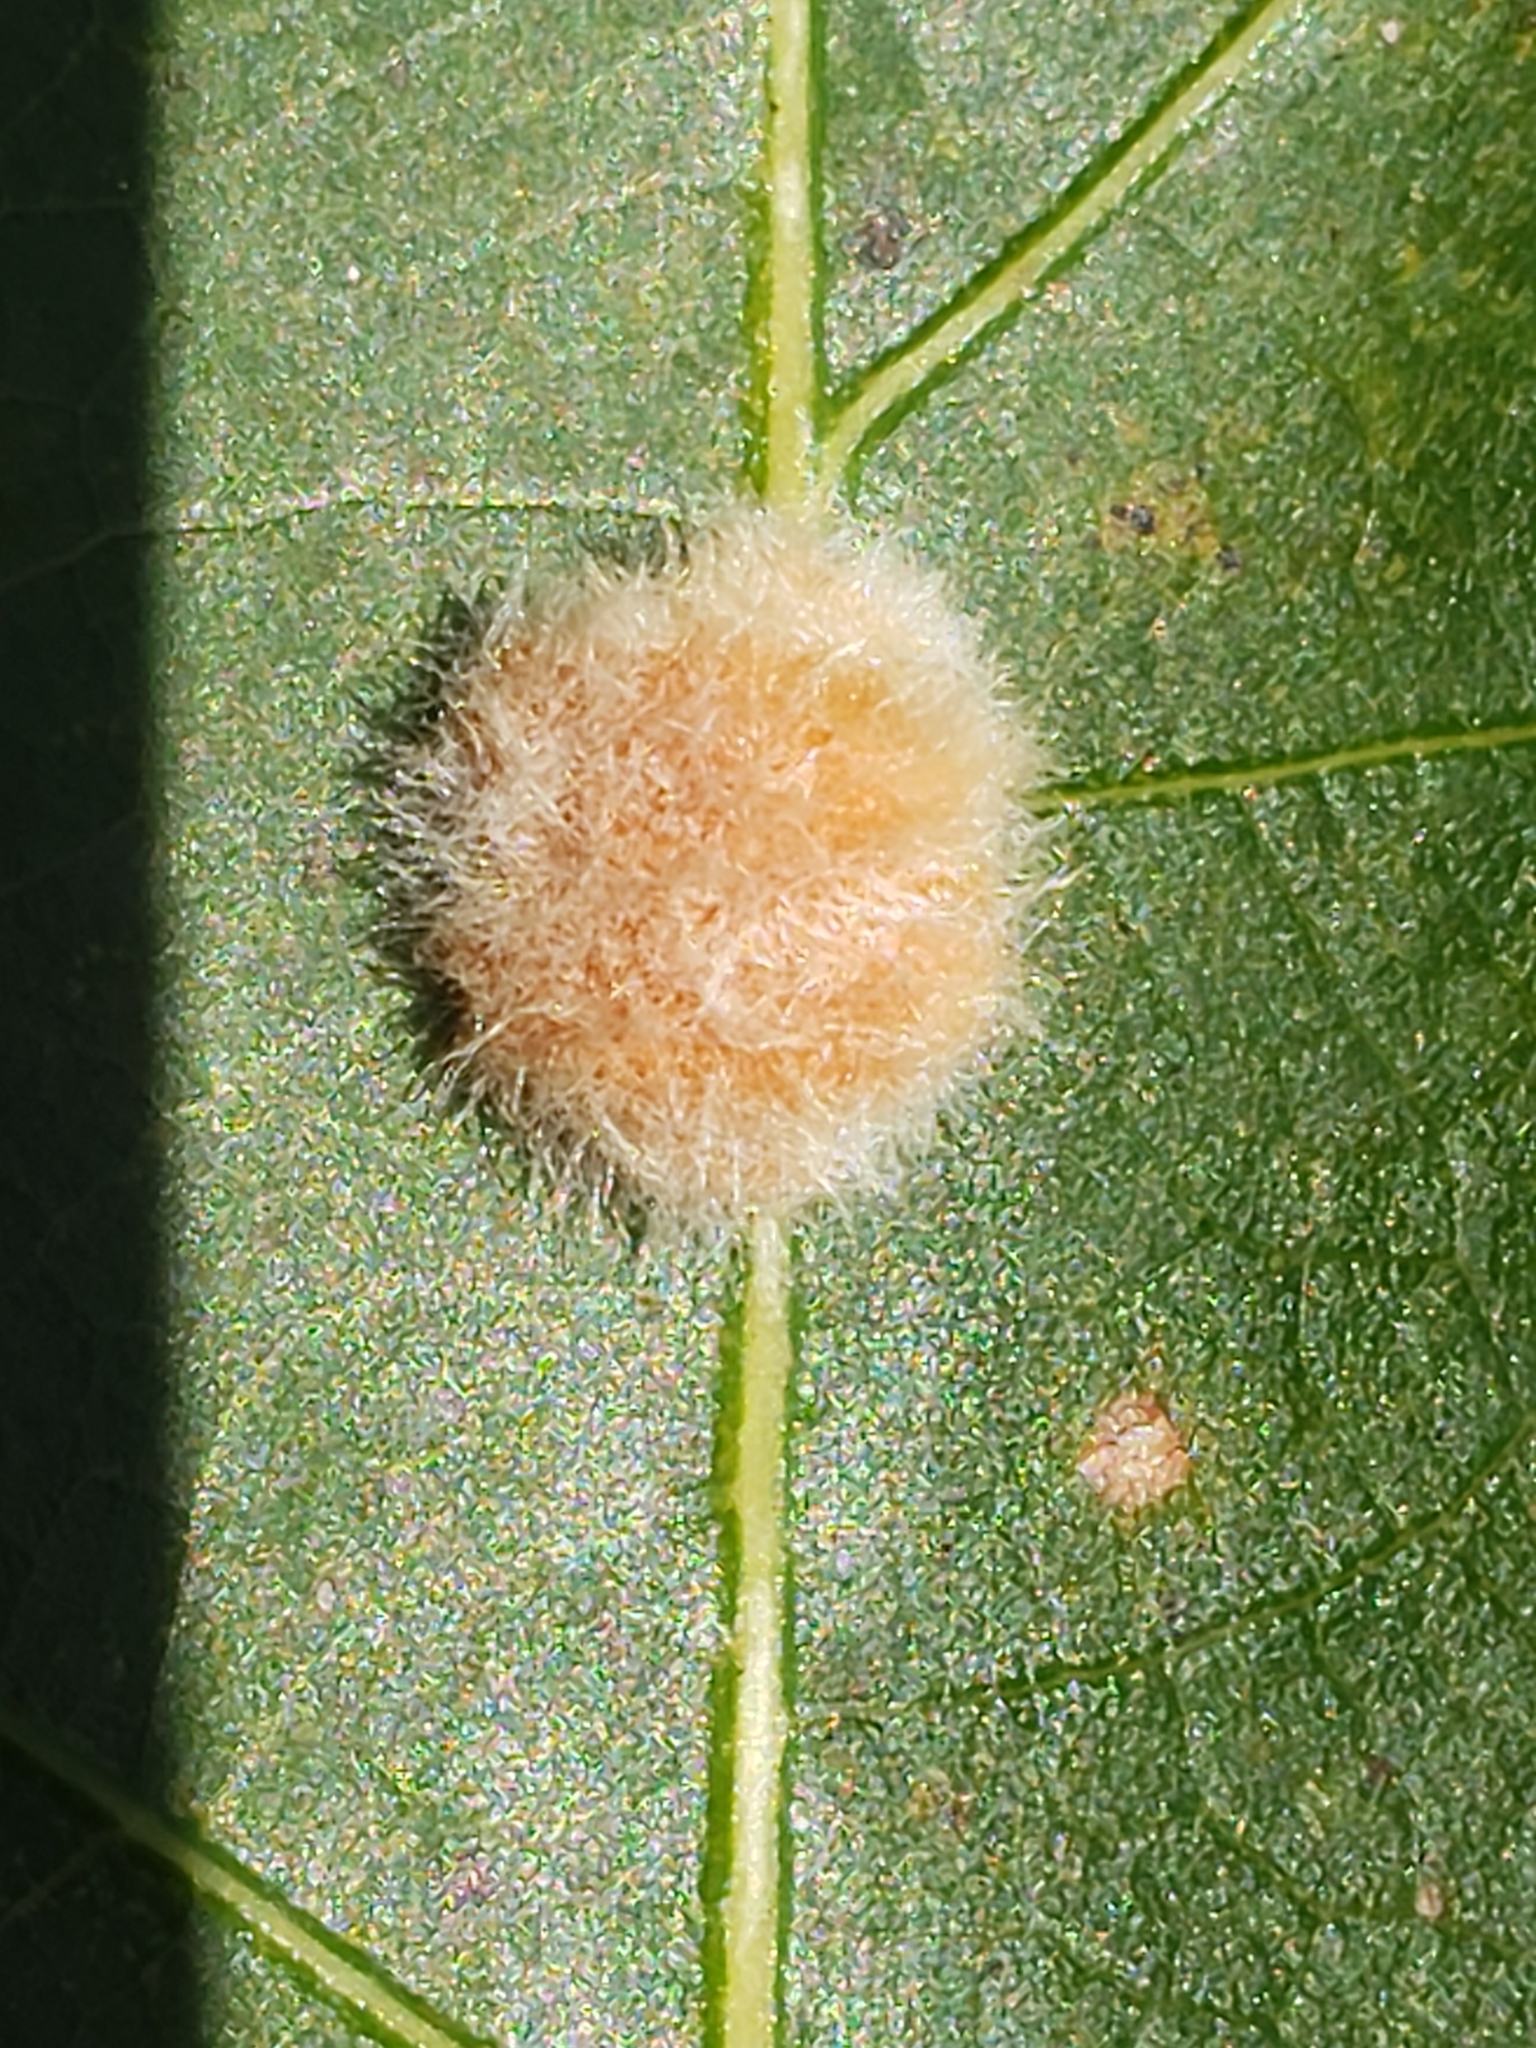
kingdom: Animalia
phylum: Arthropoda
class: Insecta
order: Hymenoptera
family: Cynipidae
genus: Andricus
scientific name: Andricus quercusflocci
